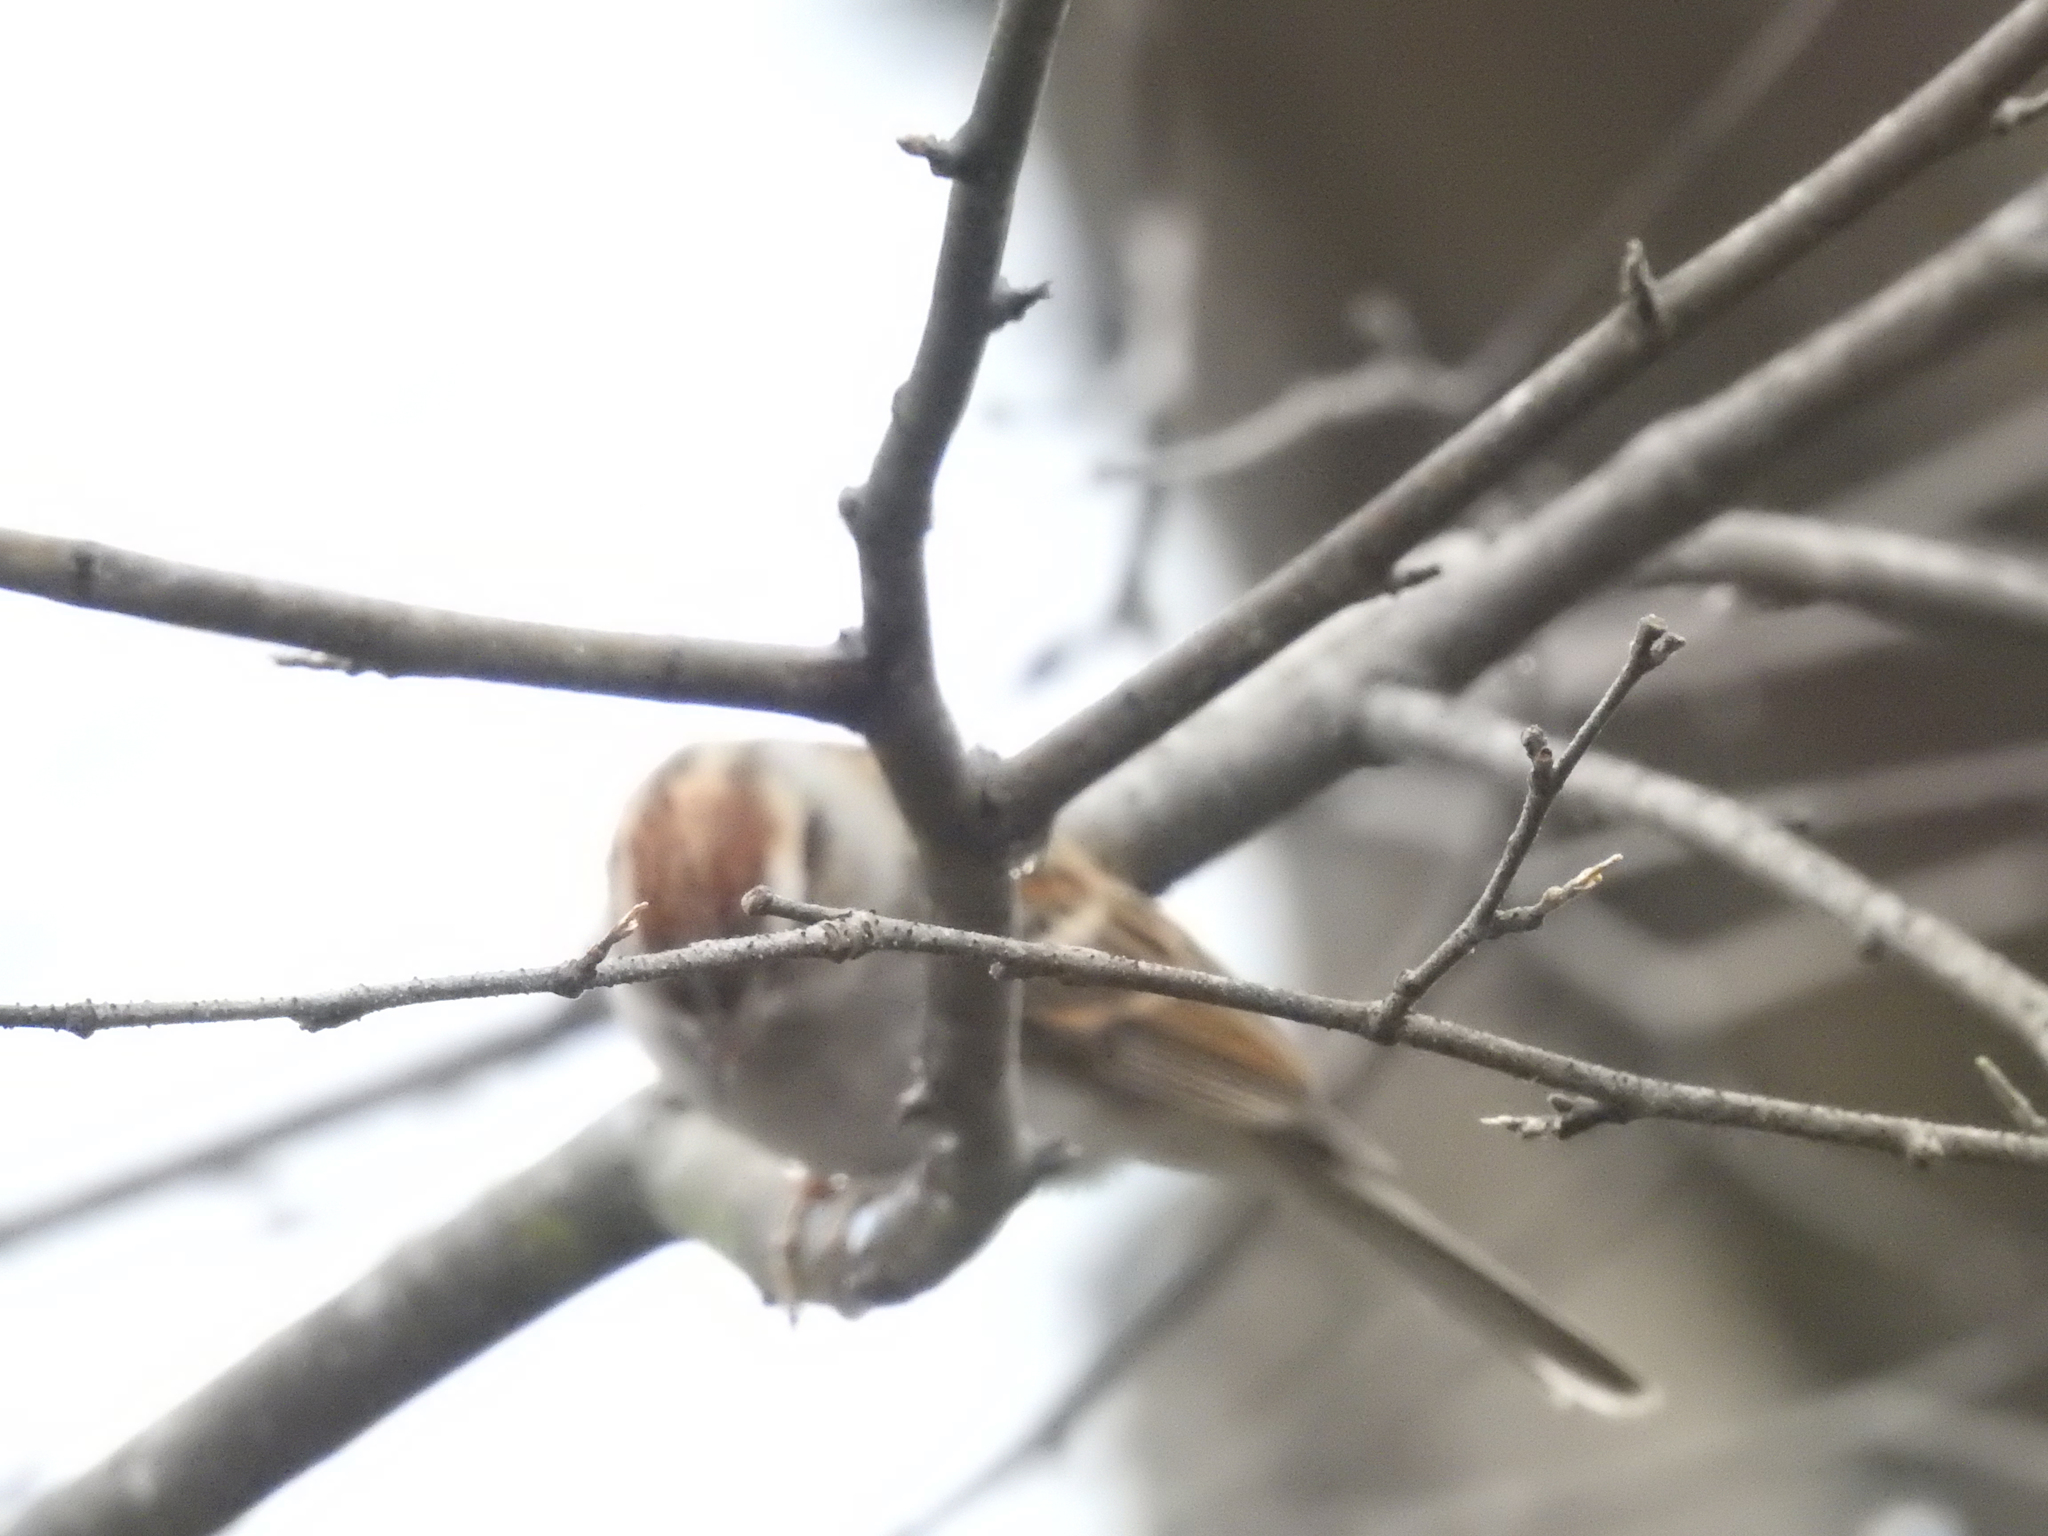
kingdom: Animalia
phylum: Chordata
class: Aves
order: Passeriformes
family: Passerellidae
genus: Spizella
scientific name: Spizella passerina
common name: Chipping sparrow
